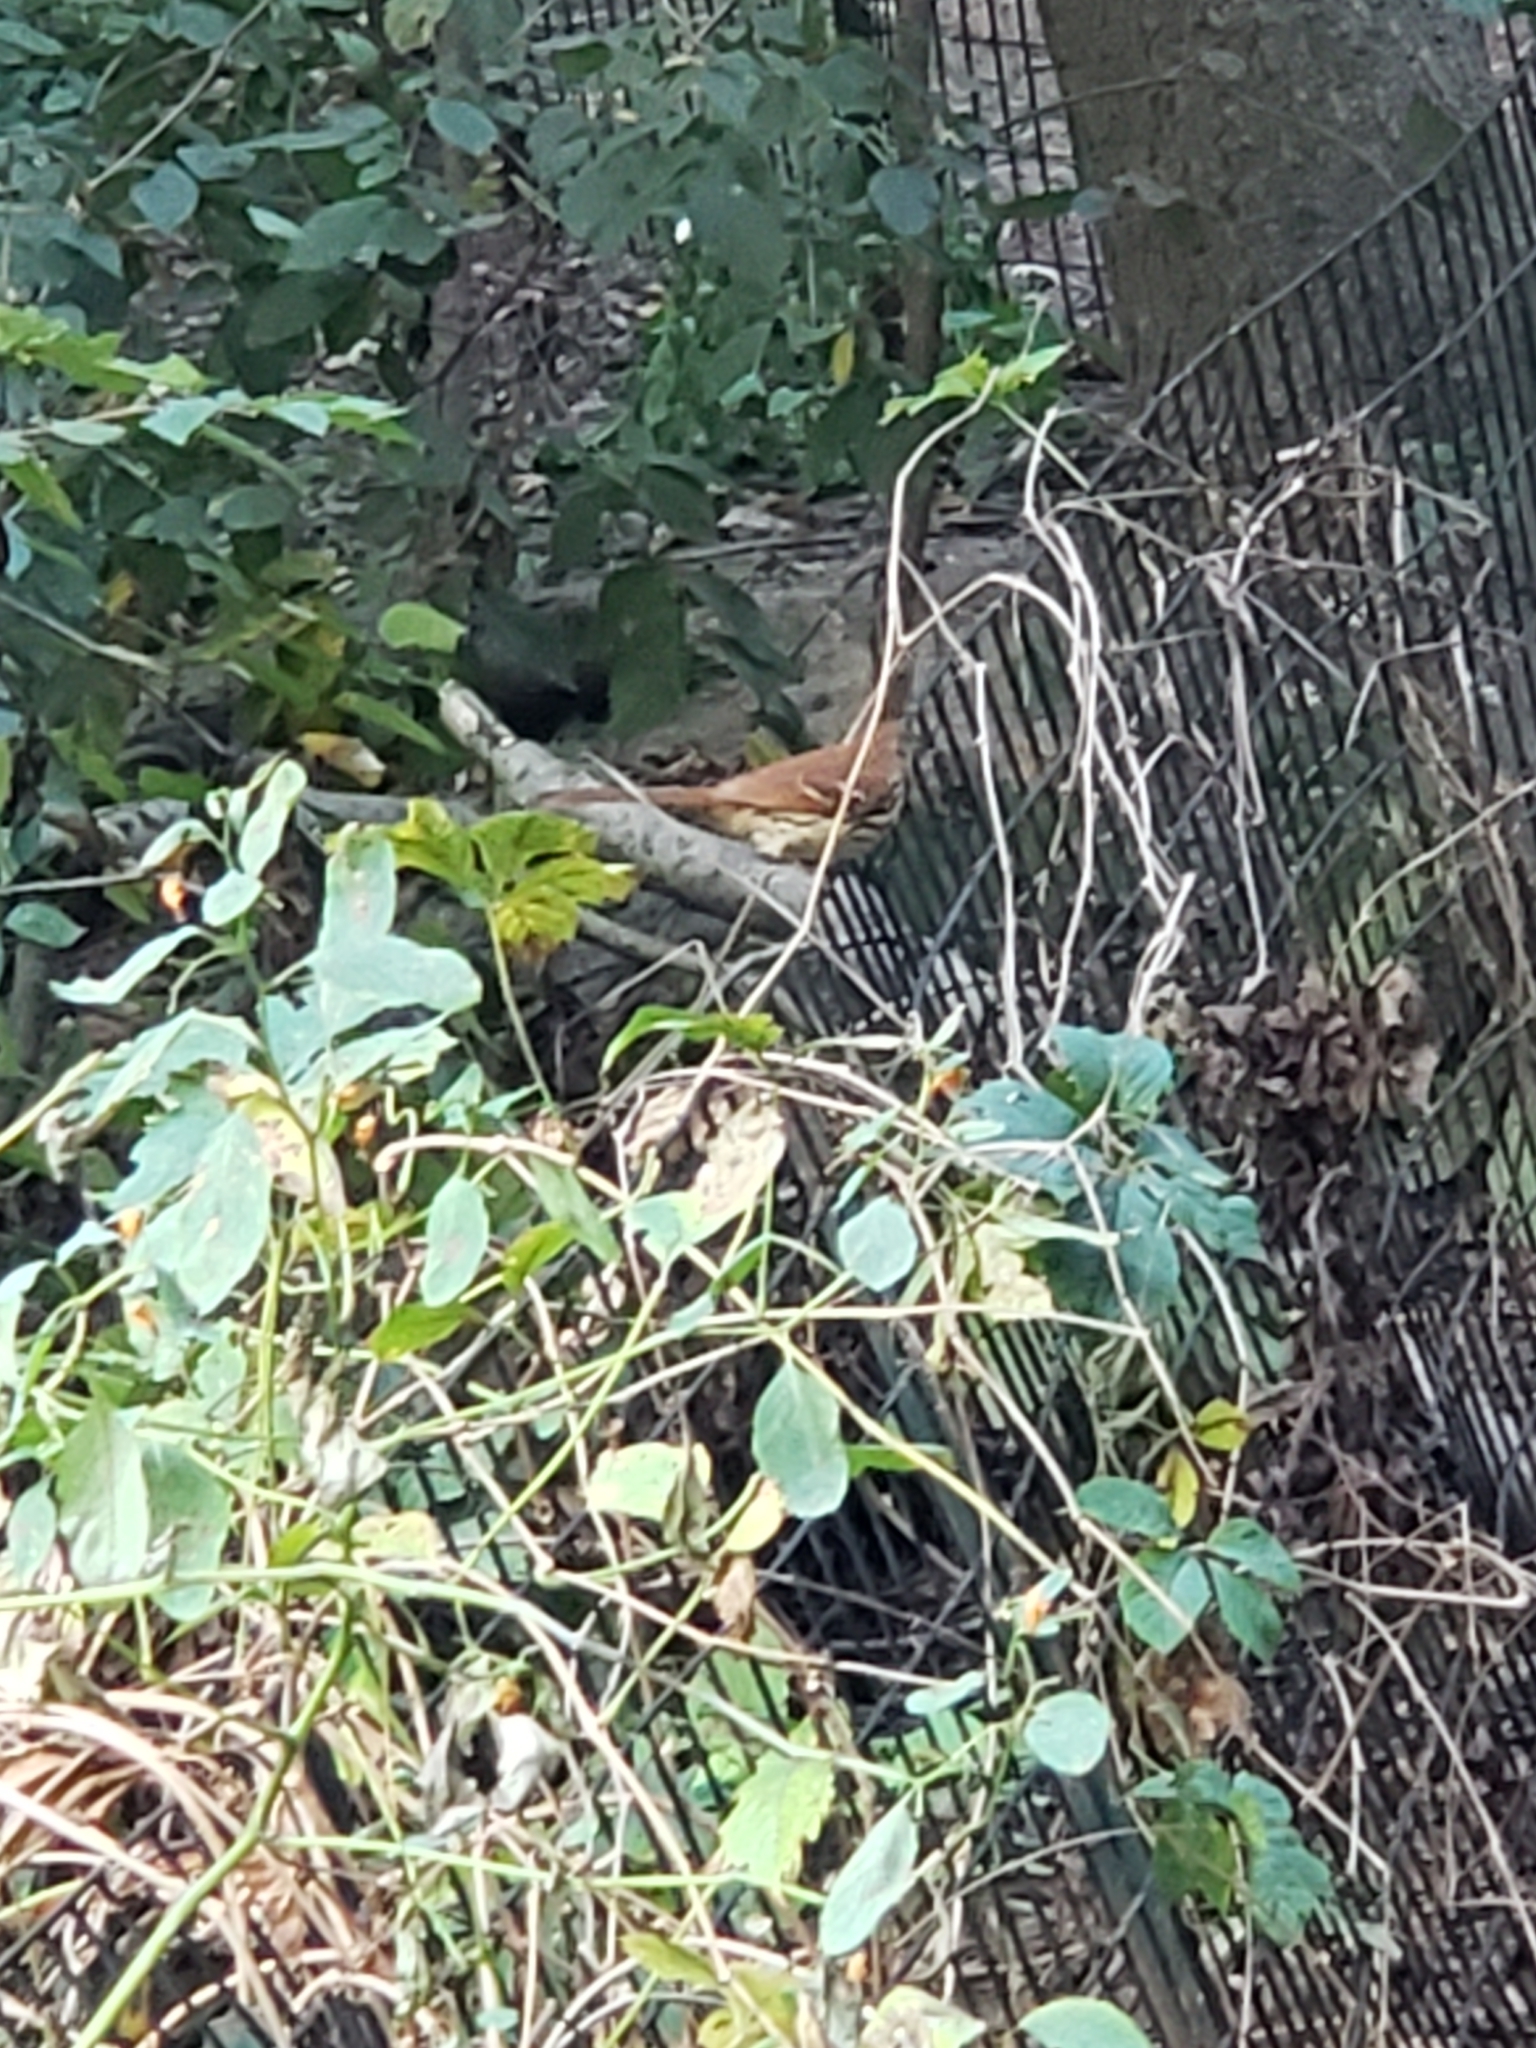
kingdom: Animalia
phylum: Chordata
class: Aves
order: Passeriformes
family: Mimidae
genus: Toxostoma
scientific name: Toxostoma rufum
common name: Brown thrasher
